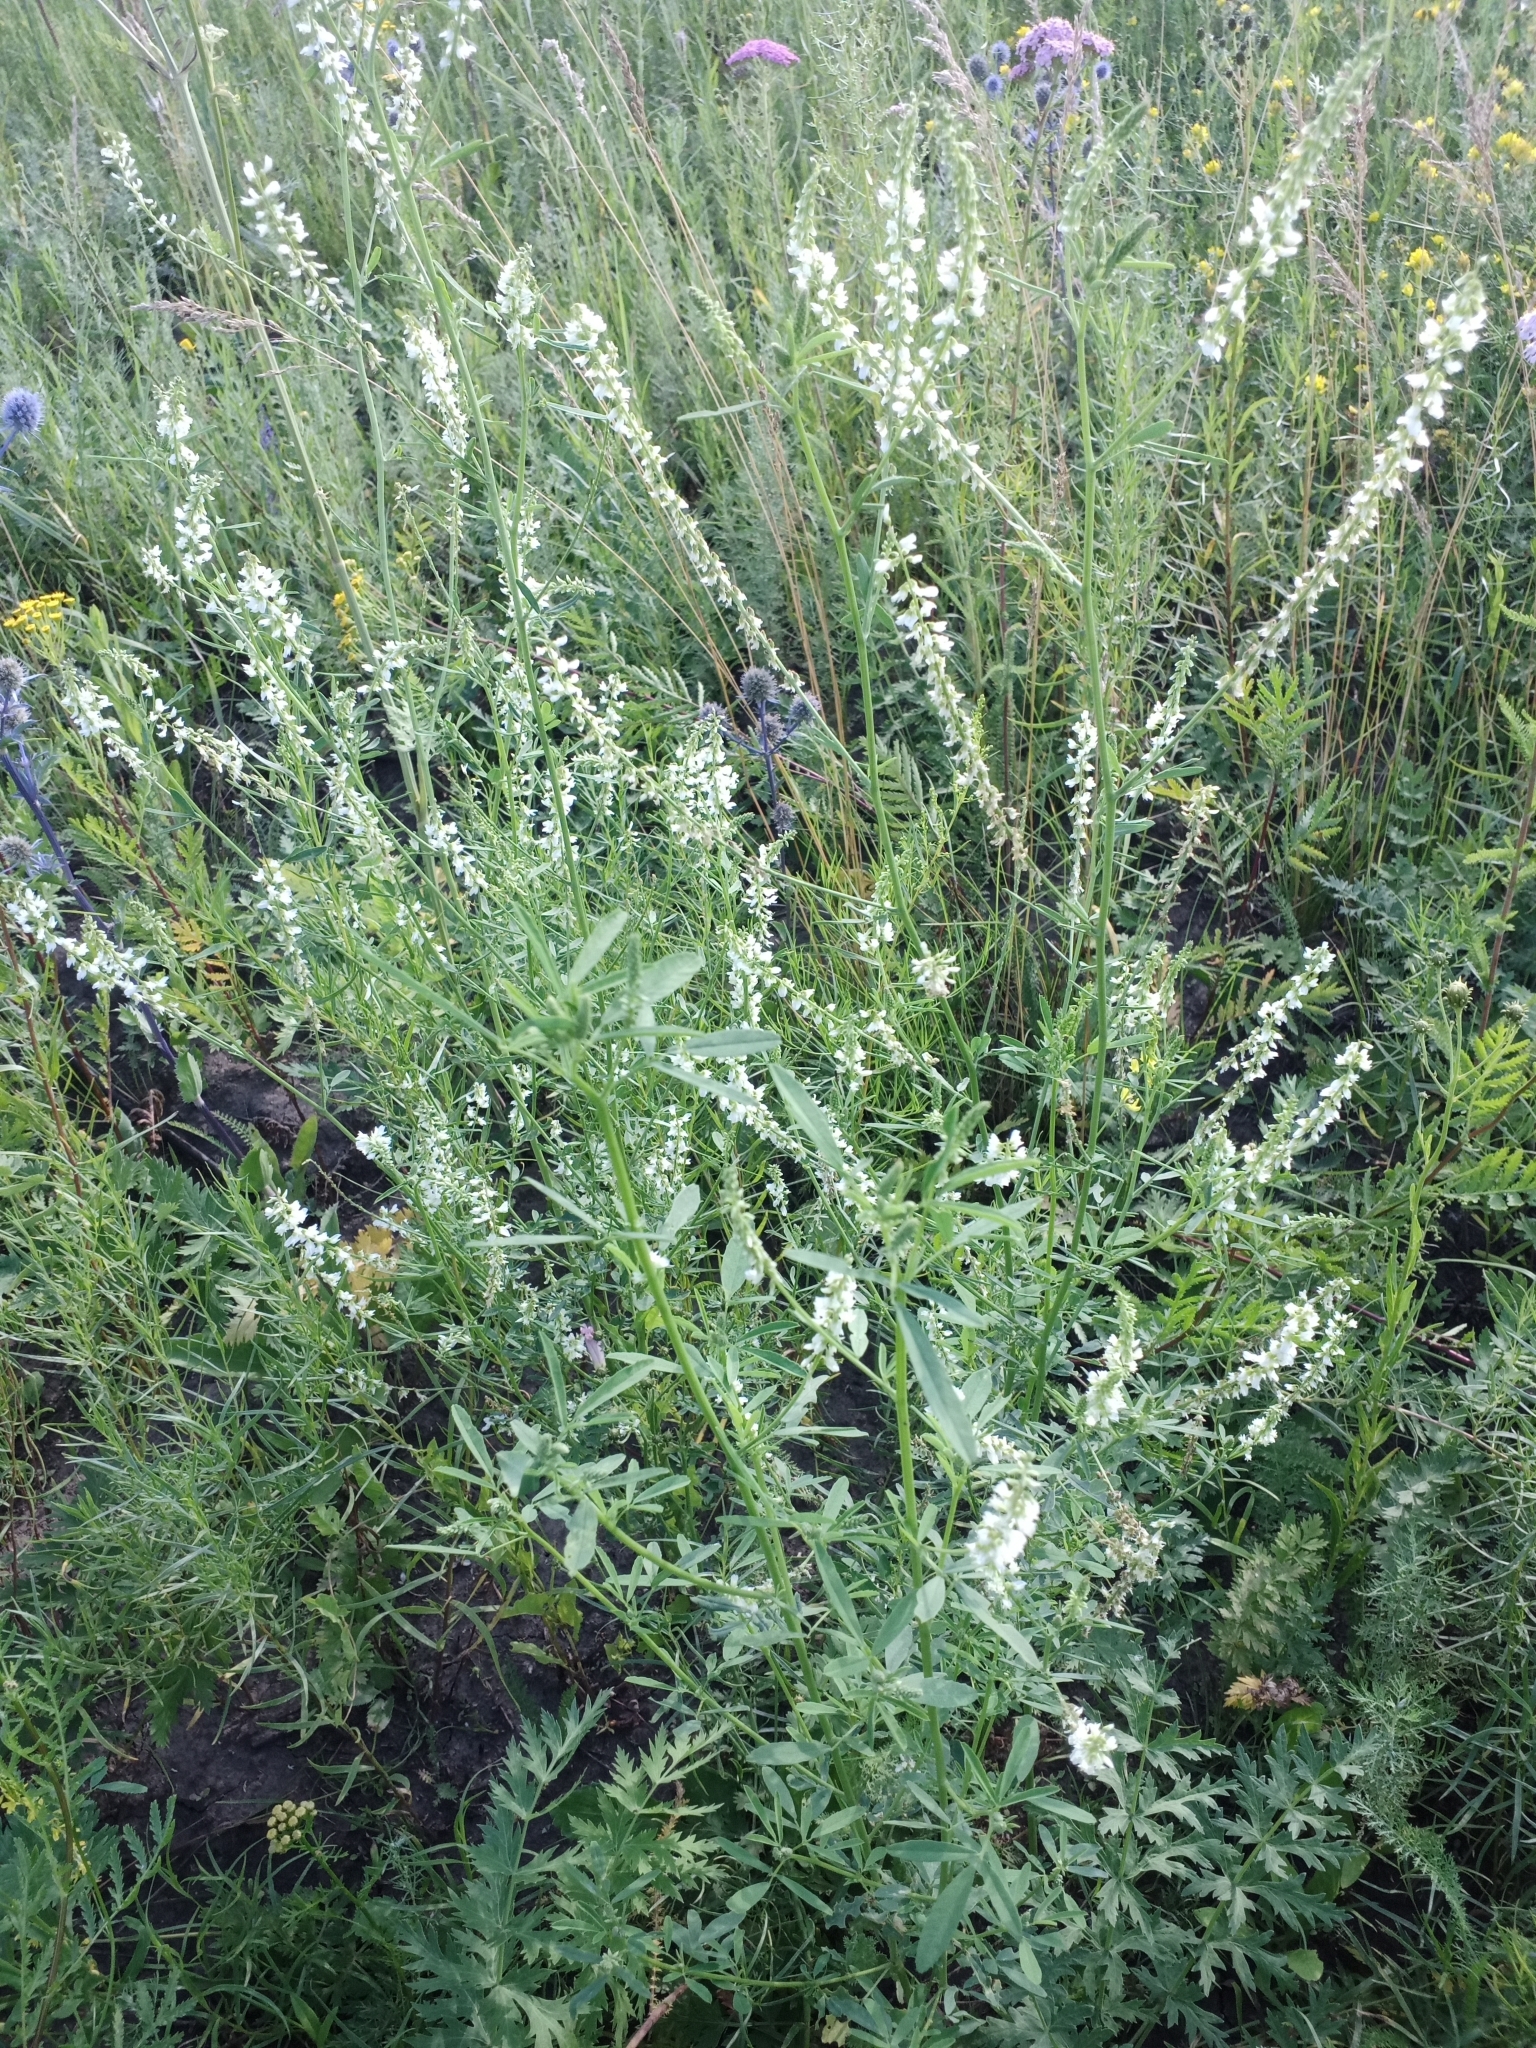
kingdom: Plantae
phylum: Tracheophyta
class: Magnoliopsida
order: Fabales
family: Fabaceae
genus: Melilotus
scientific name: Melilotus albus
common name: White melilot
